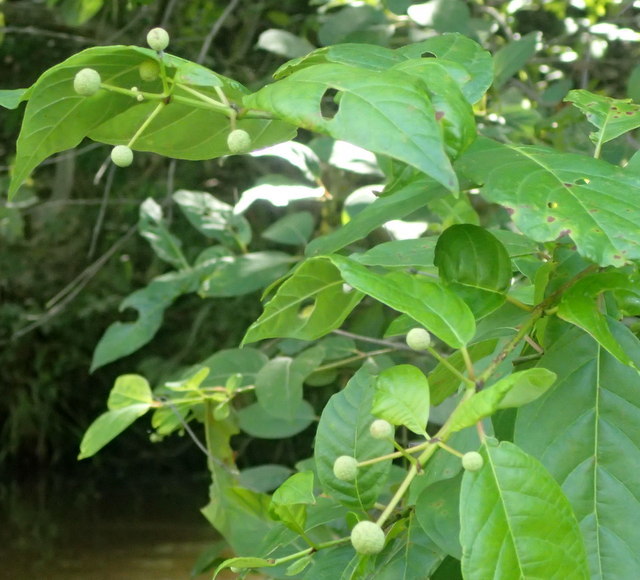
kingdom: Plantae
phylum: Tracheophyta
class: Magnoliopsida
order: Gentianales
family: Rubiaceae
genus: Cephalanthus
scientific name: Cephalanthus occidentalis
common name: Button-willow
